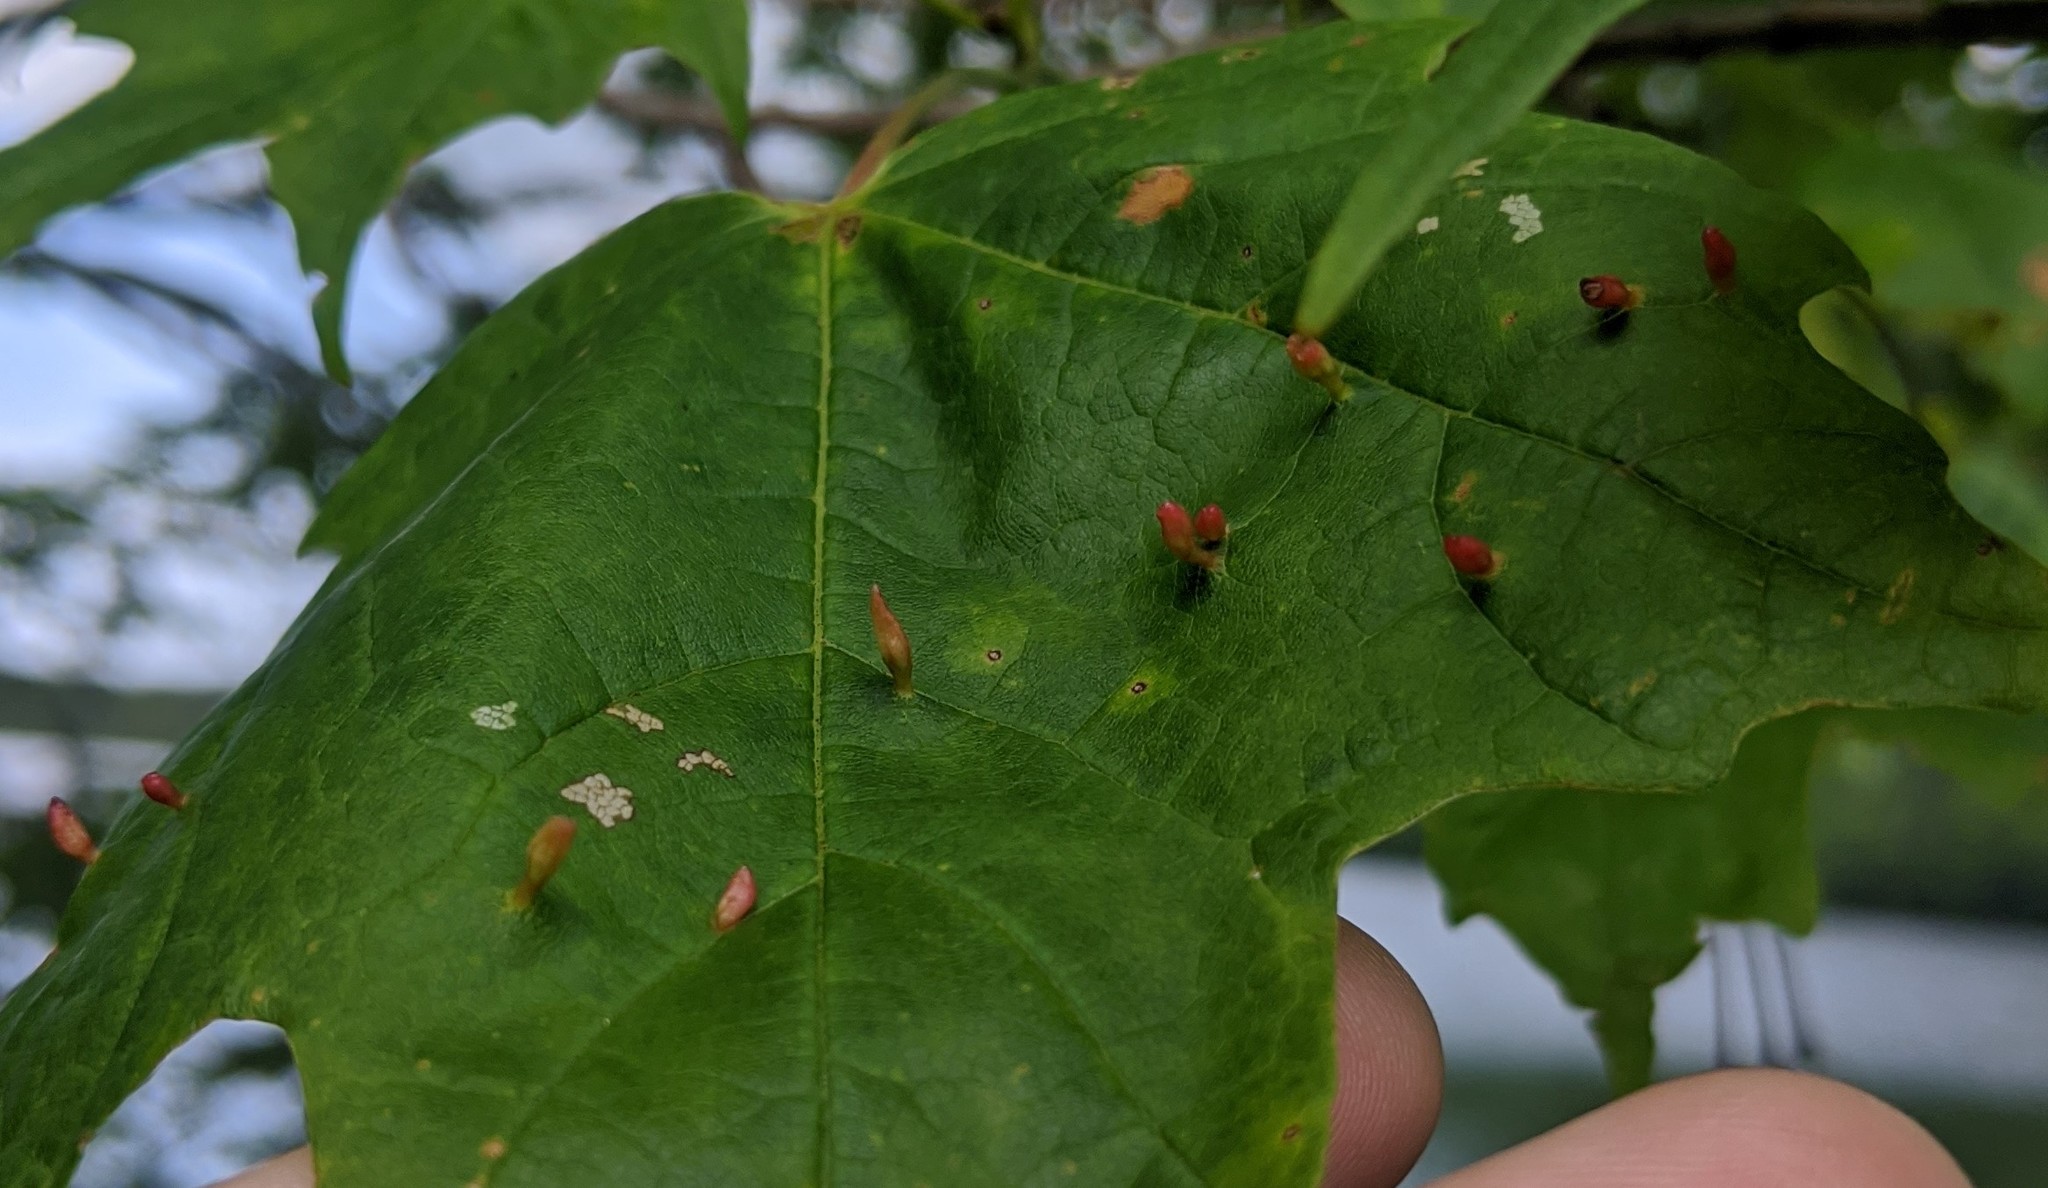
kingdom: Animalia
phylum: Arthropoda
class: Arachnida
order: Trombidiformes
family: Eriophyidae
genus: Vasates
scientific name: Vasates aceriscrumena
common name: Maple spindle gall mite
